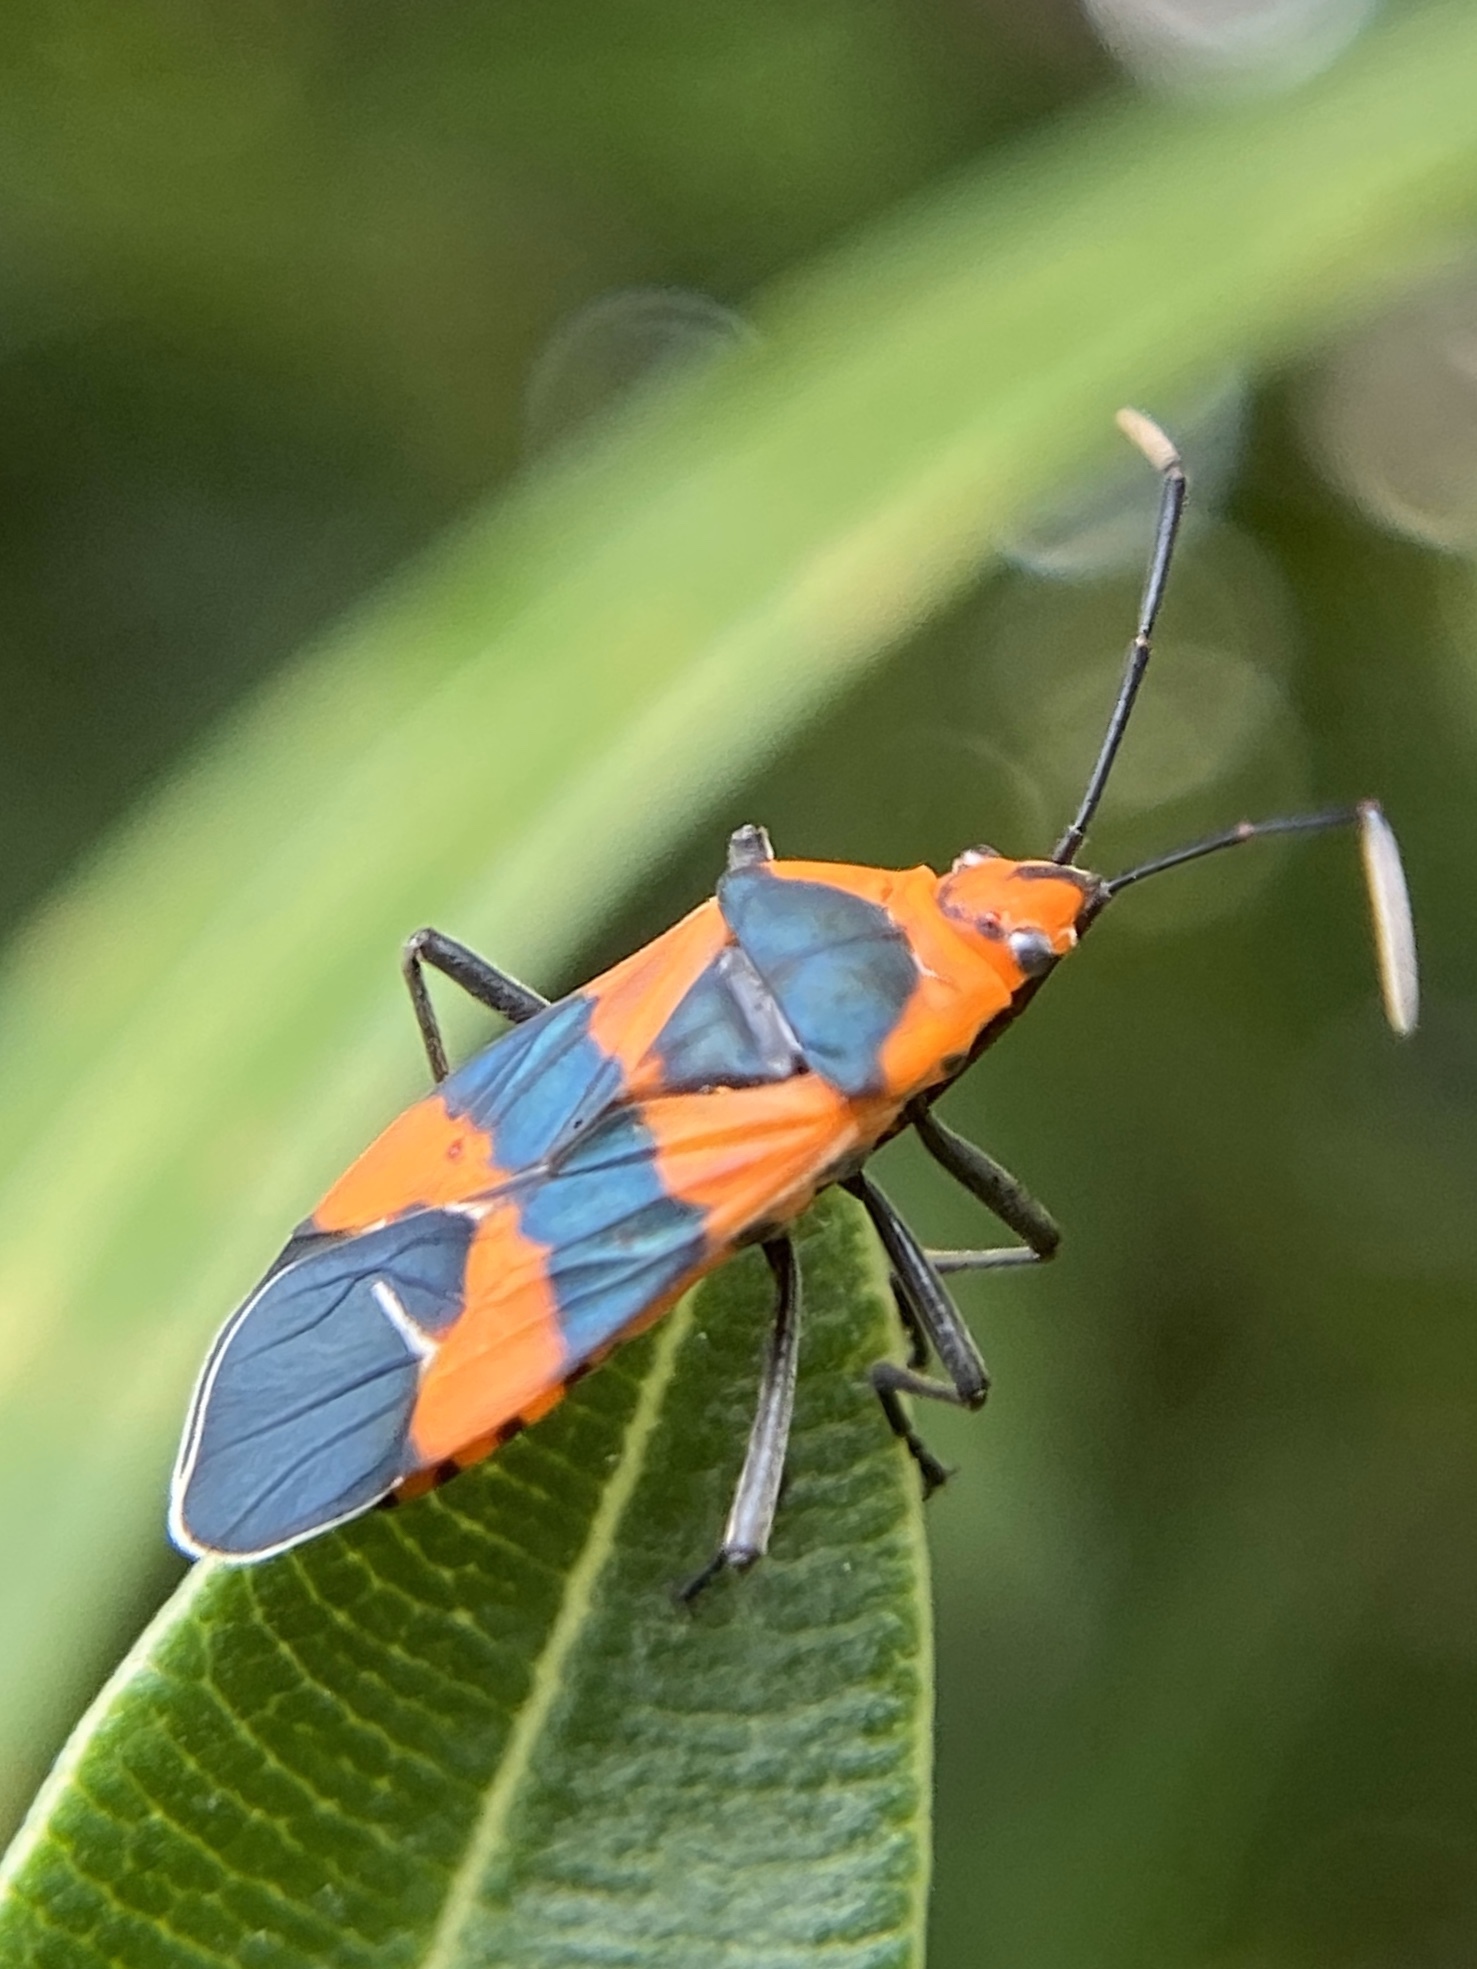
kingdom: Animalia
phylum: Arthropoda
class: Insecta
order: Hemiptera
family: Lygaeidae
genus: Oncopeltus
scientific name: Oncopeltus aulicus
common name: Lygaeid bug
